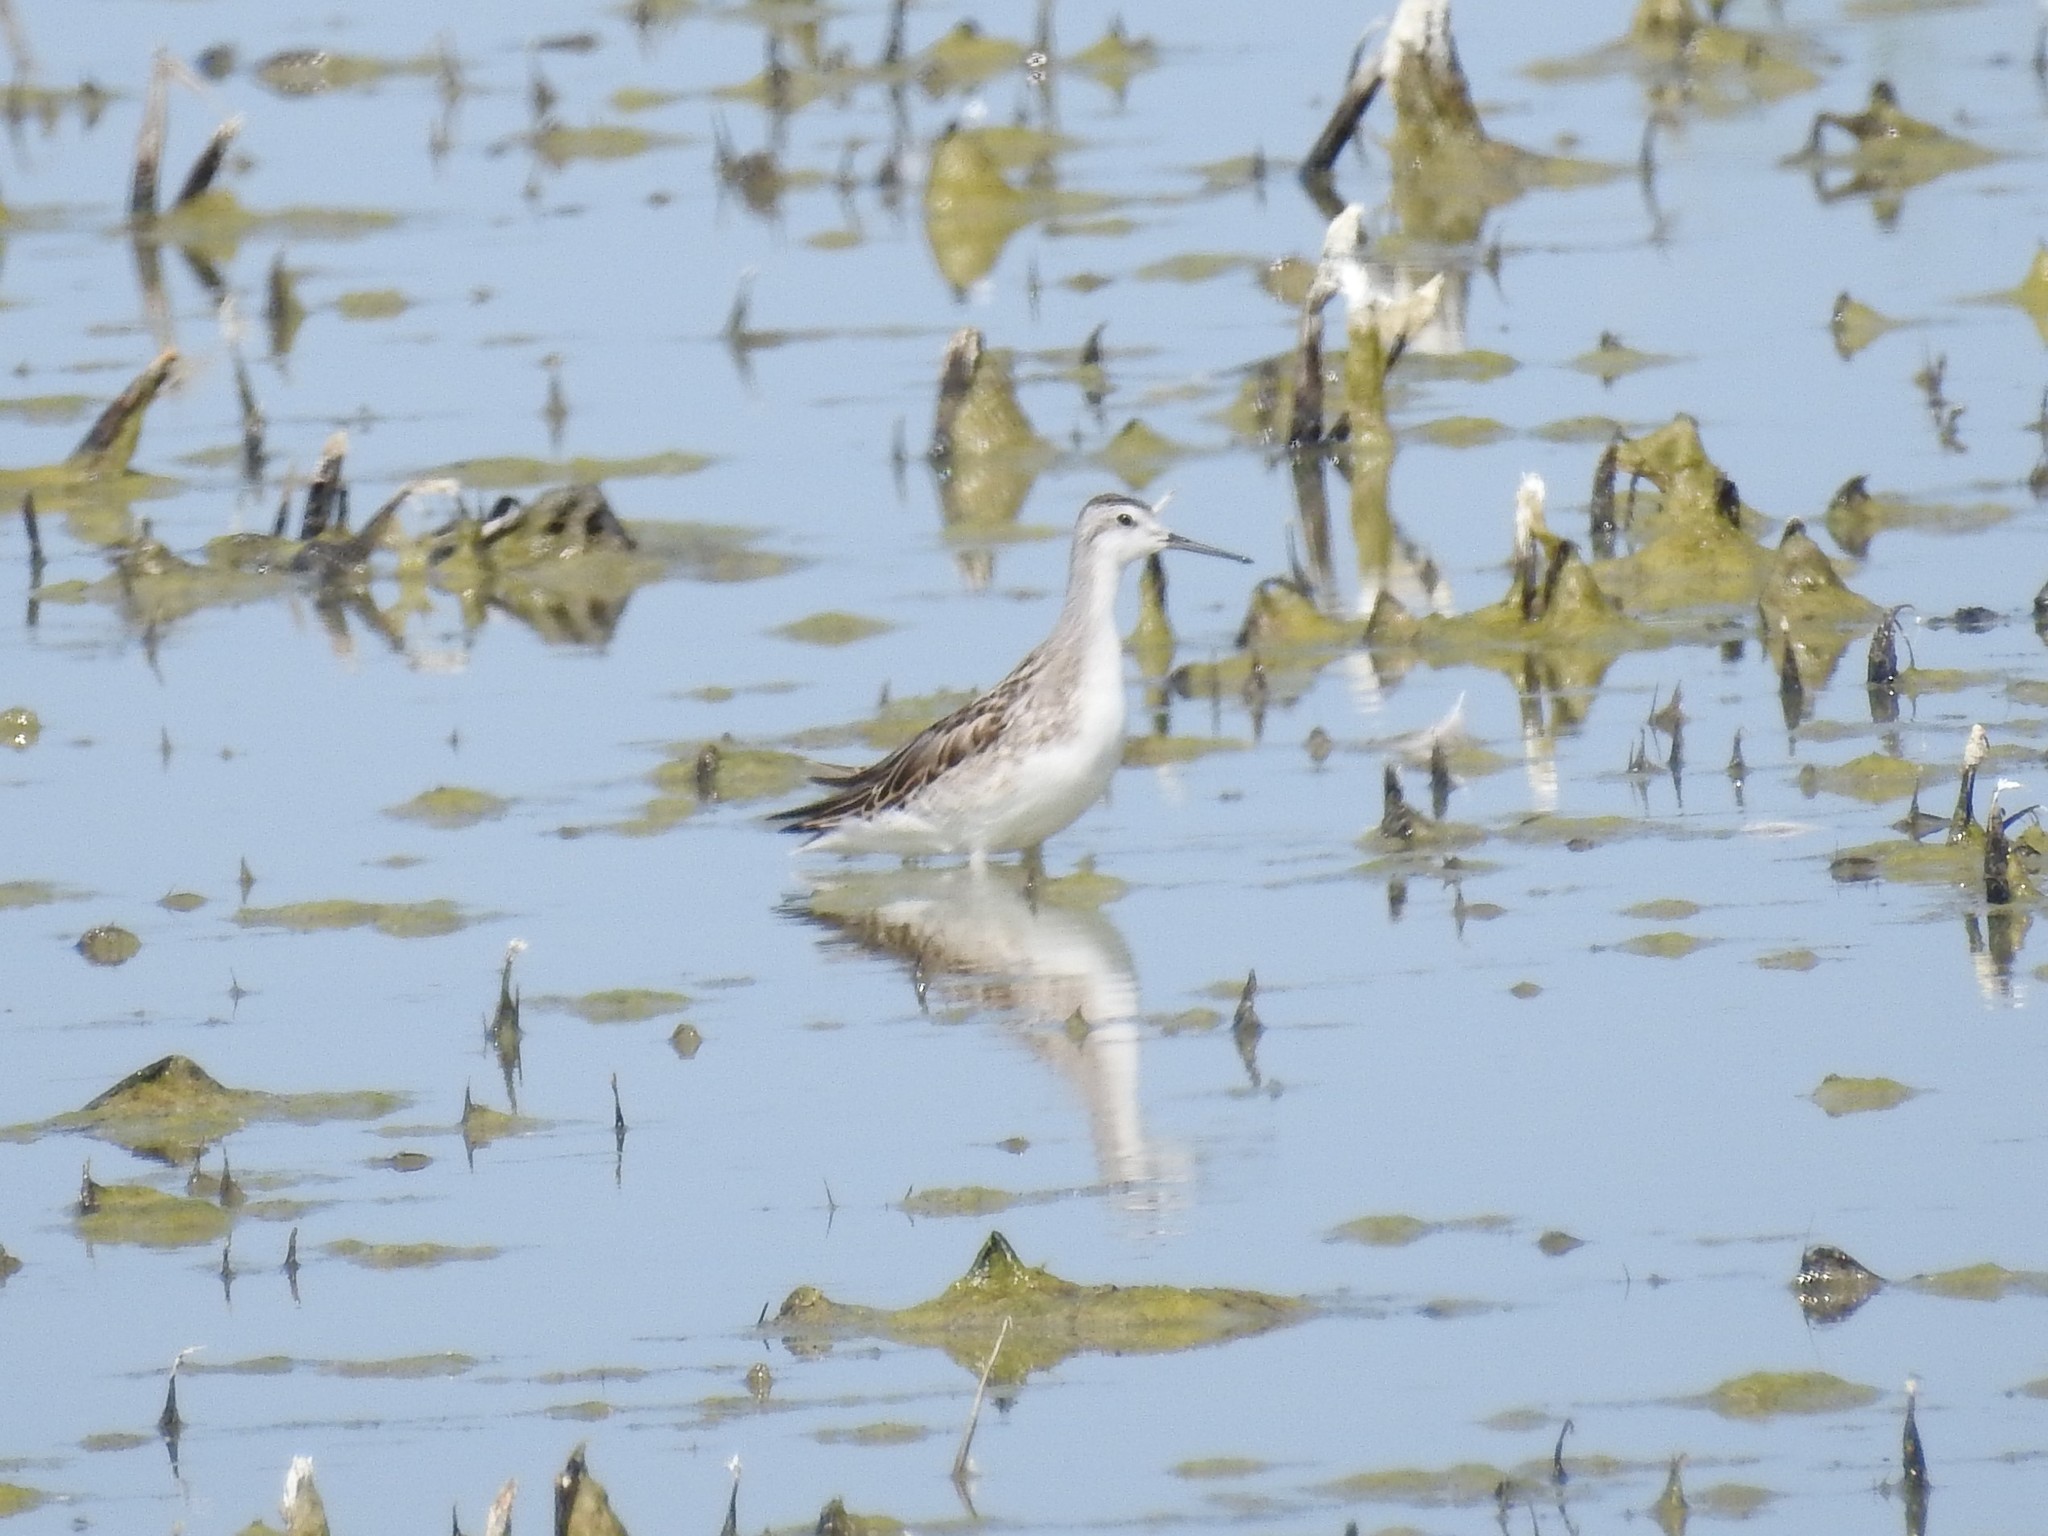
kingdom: Animalia
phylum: Chordata
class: Aves
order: Charadriiformes
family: Scolopacidae
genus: Phalaropus
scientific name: Phalaropus tricolor
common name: Wilson's phalarope
